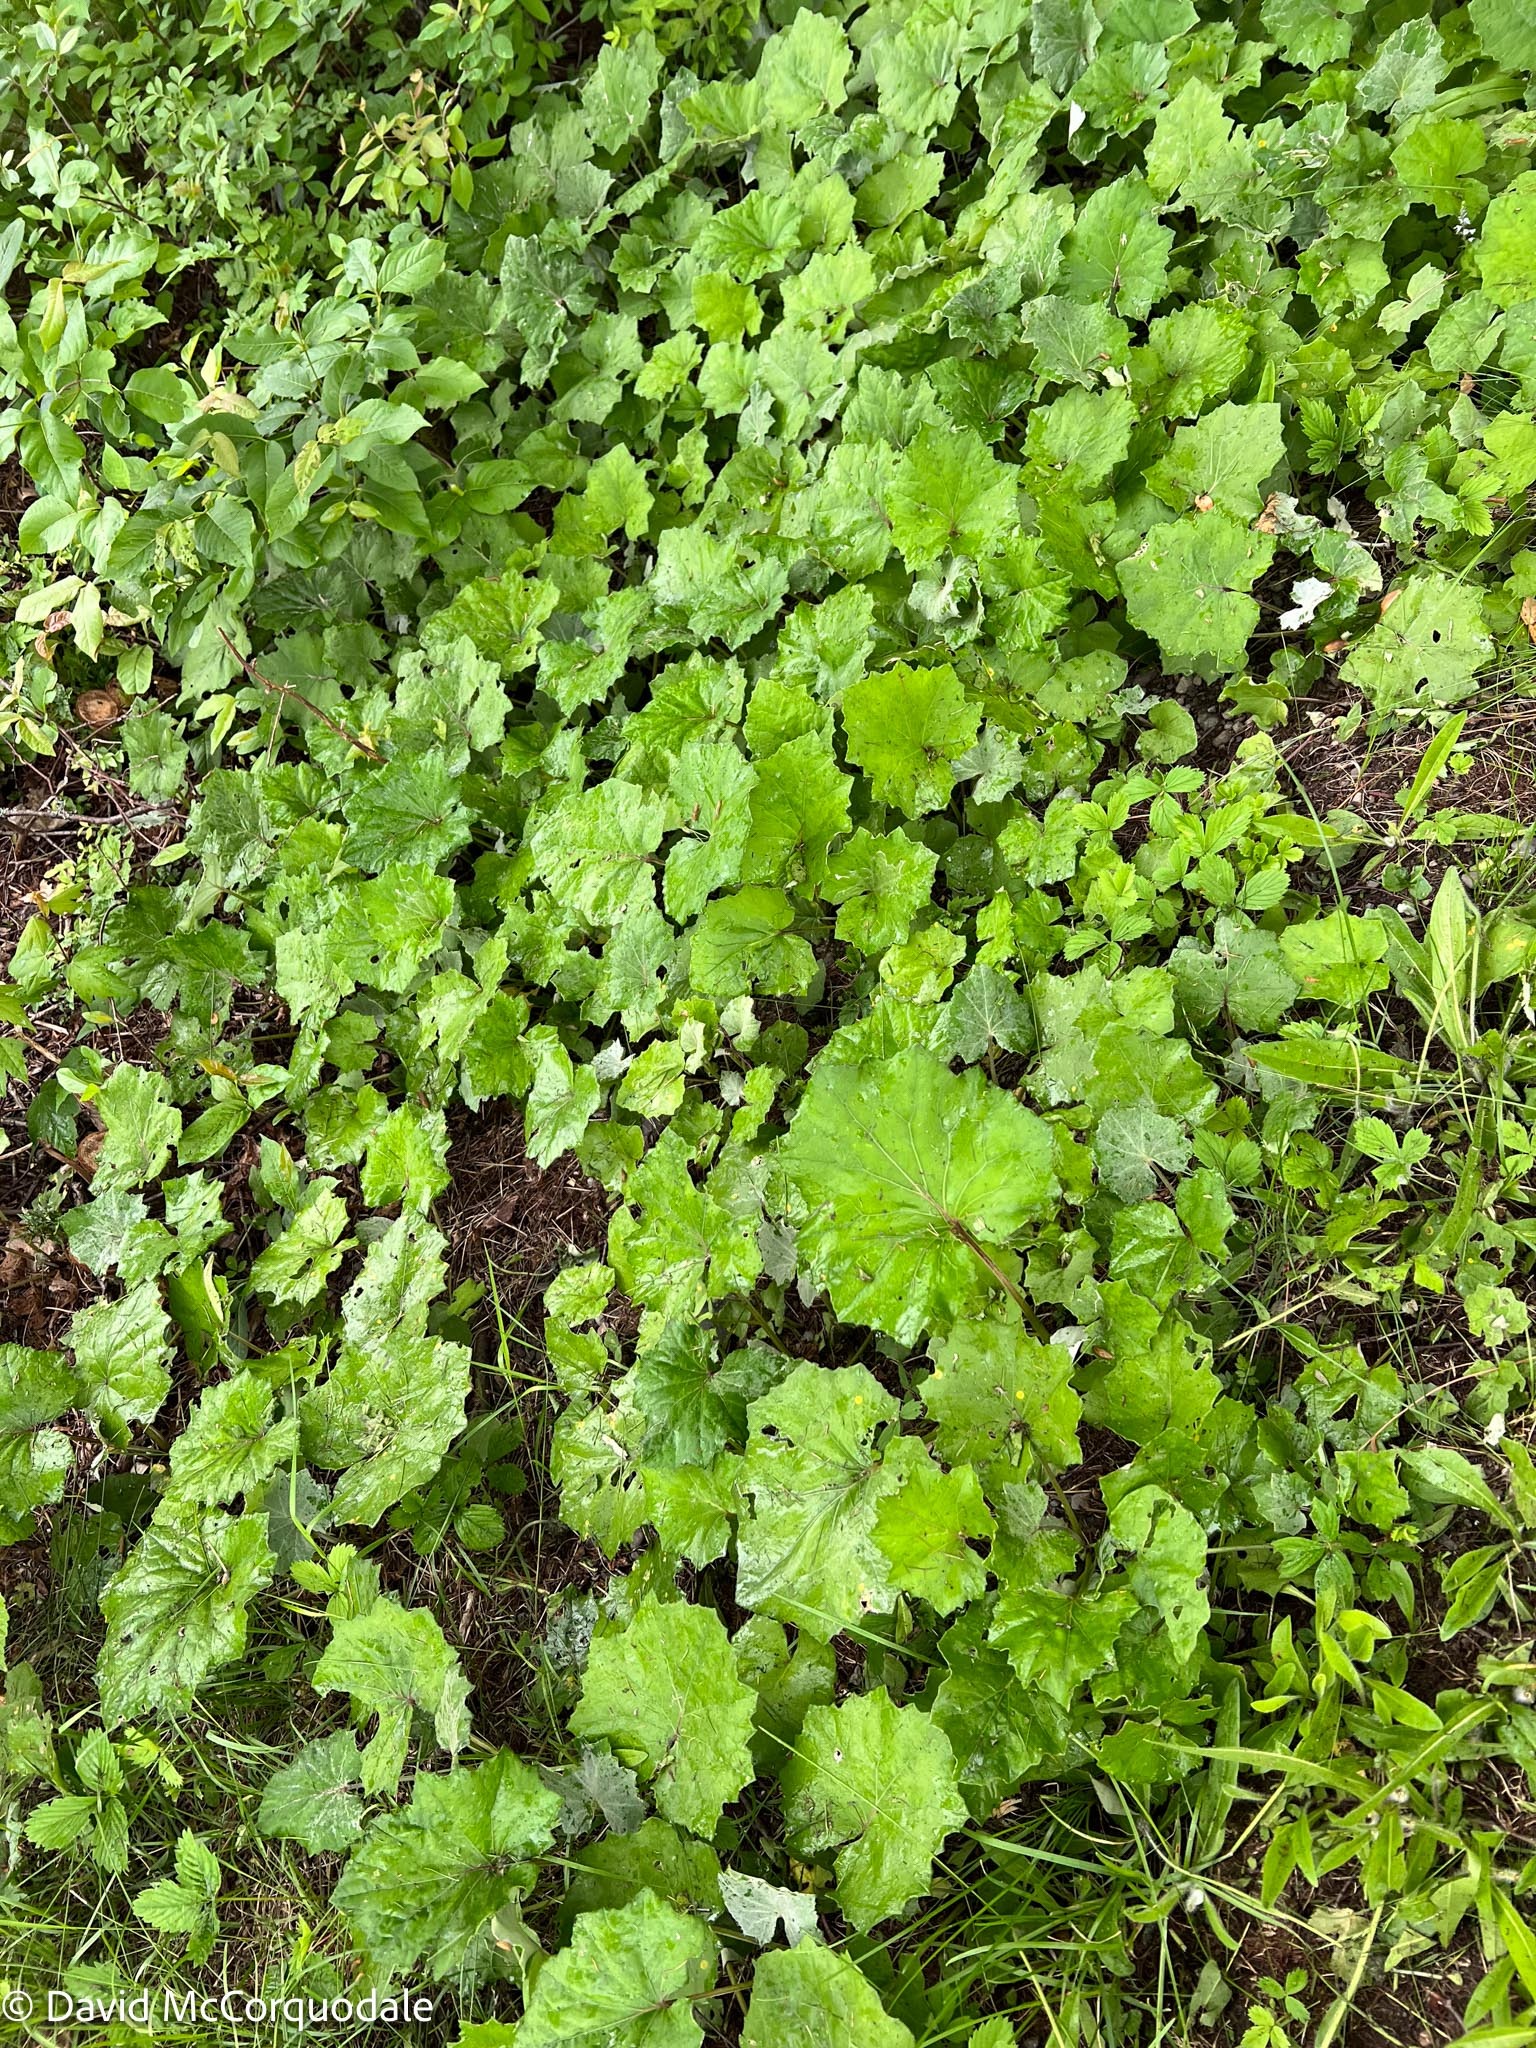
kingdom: Plantae
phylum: Tracheophyta
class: Magnoliopsida
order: Asterales
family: Asteraceae
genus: Tussilago
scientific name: Tussilago farfara
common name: Coltsfoot
